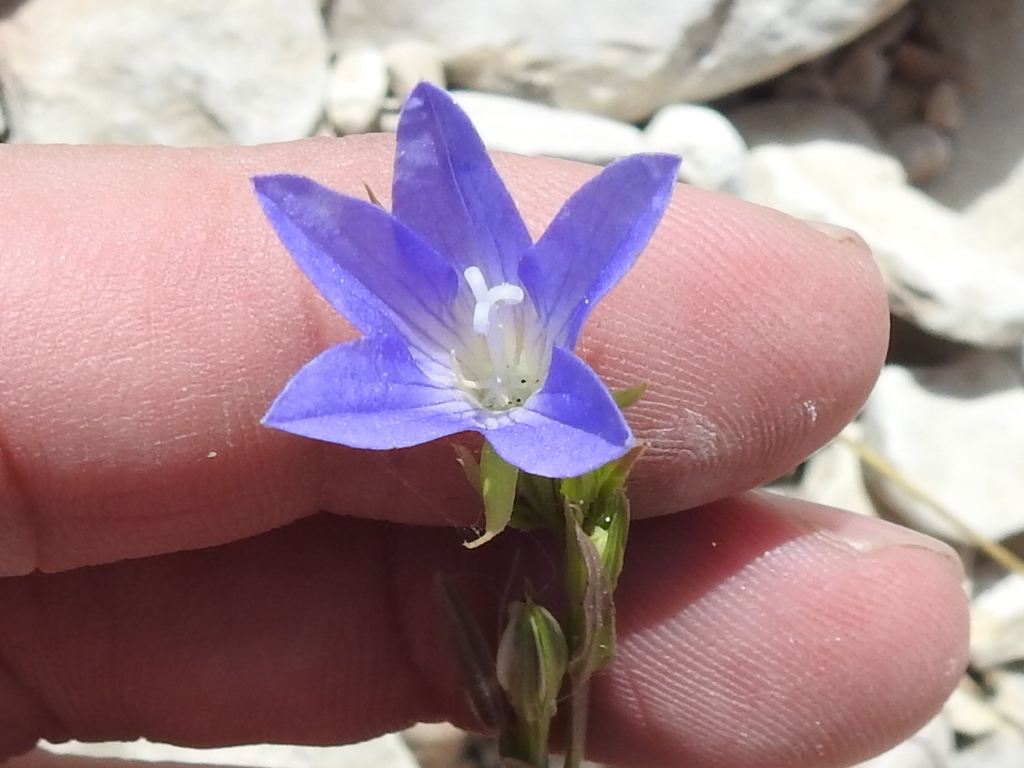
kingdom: Plantae
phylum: Tracheophyta
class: Magnoliopsida
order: Asterales
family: Campanulaceae
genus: Triodanis
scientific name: Triodanis coloradoensis
